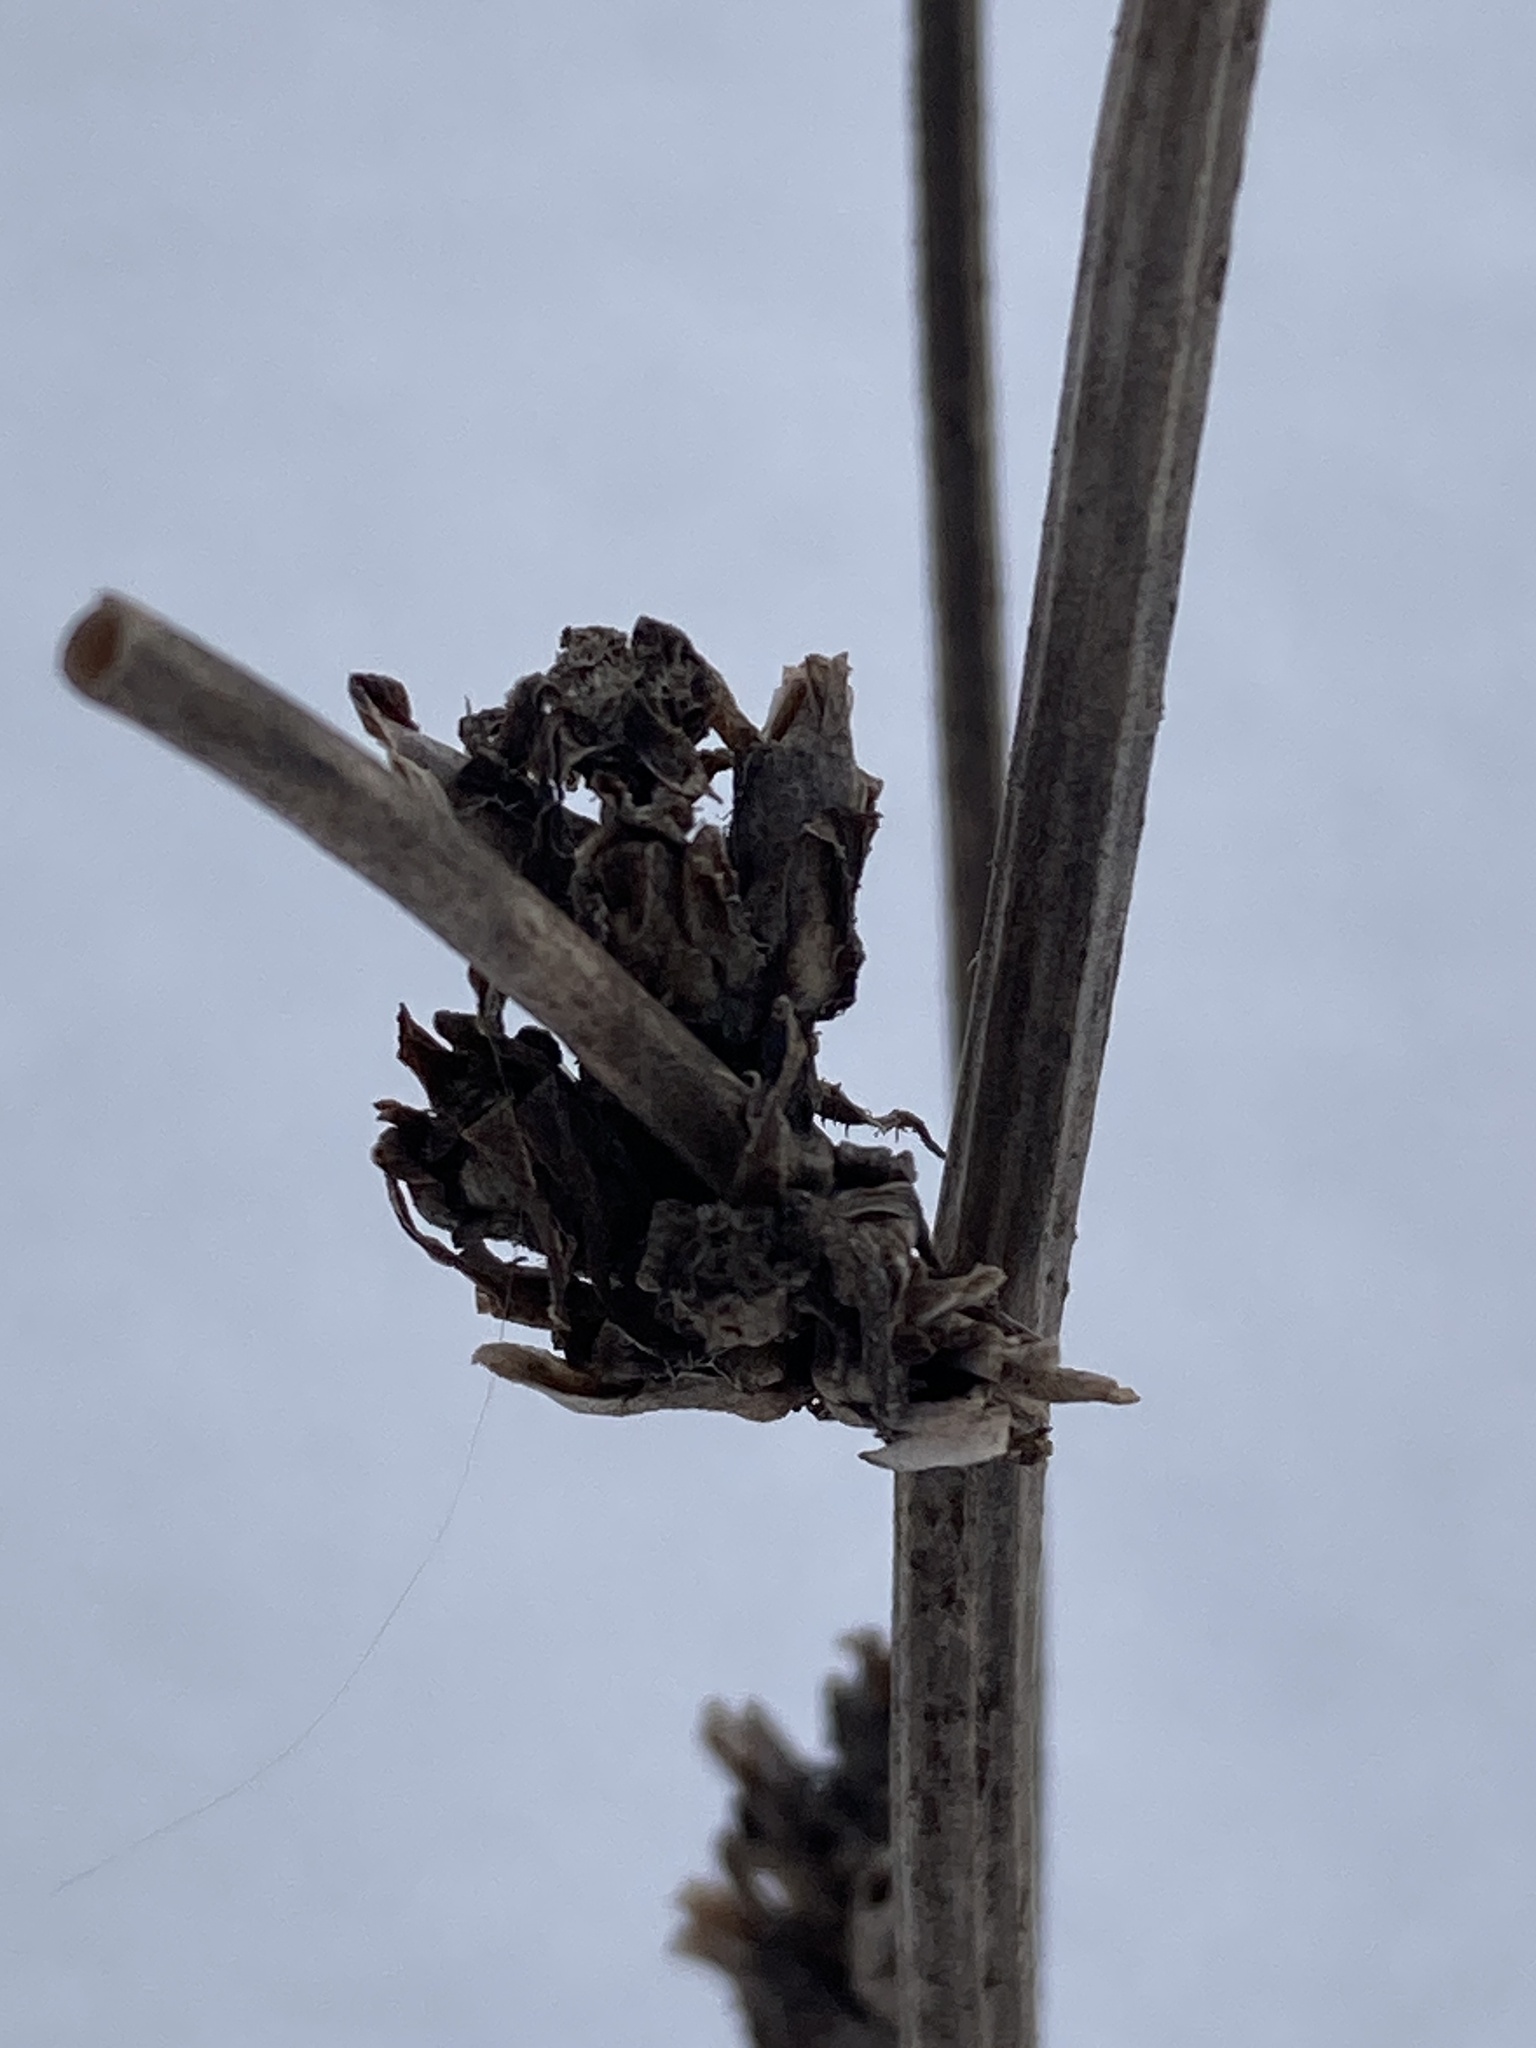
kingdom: Plantae
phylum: Tracheophyta
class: Magnoliopsida
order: Asterales
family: Asteraceae
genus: Cichorium
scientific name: Cichorium intybus
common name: Chicory
